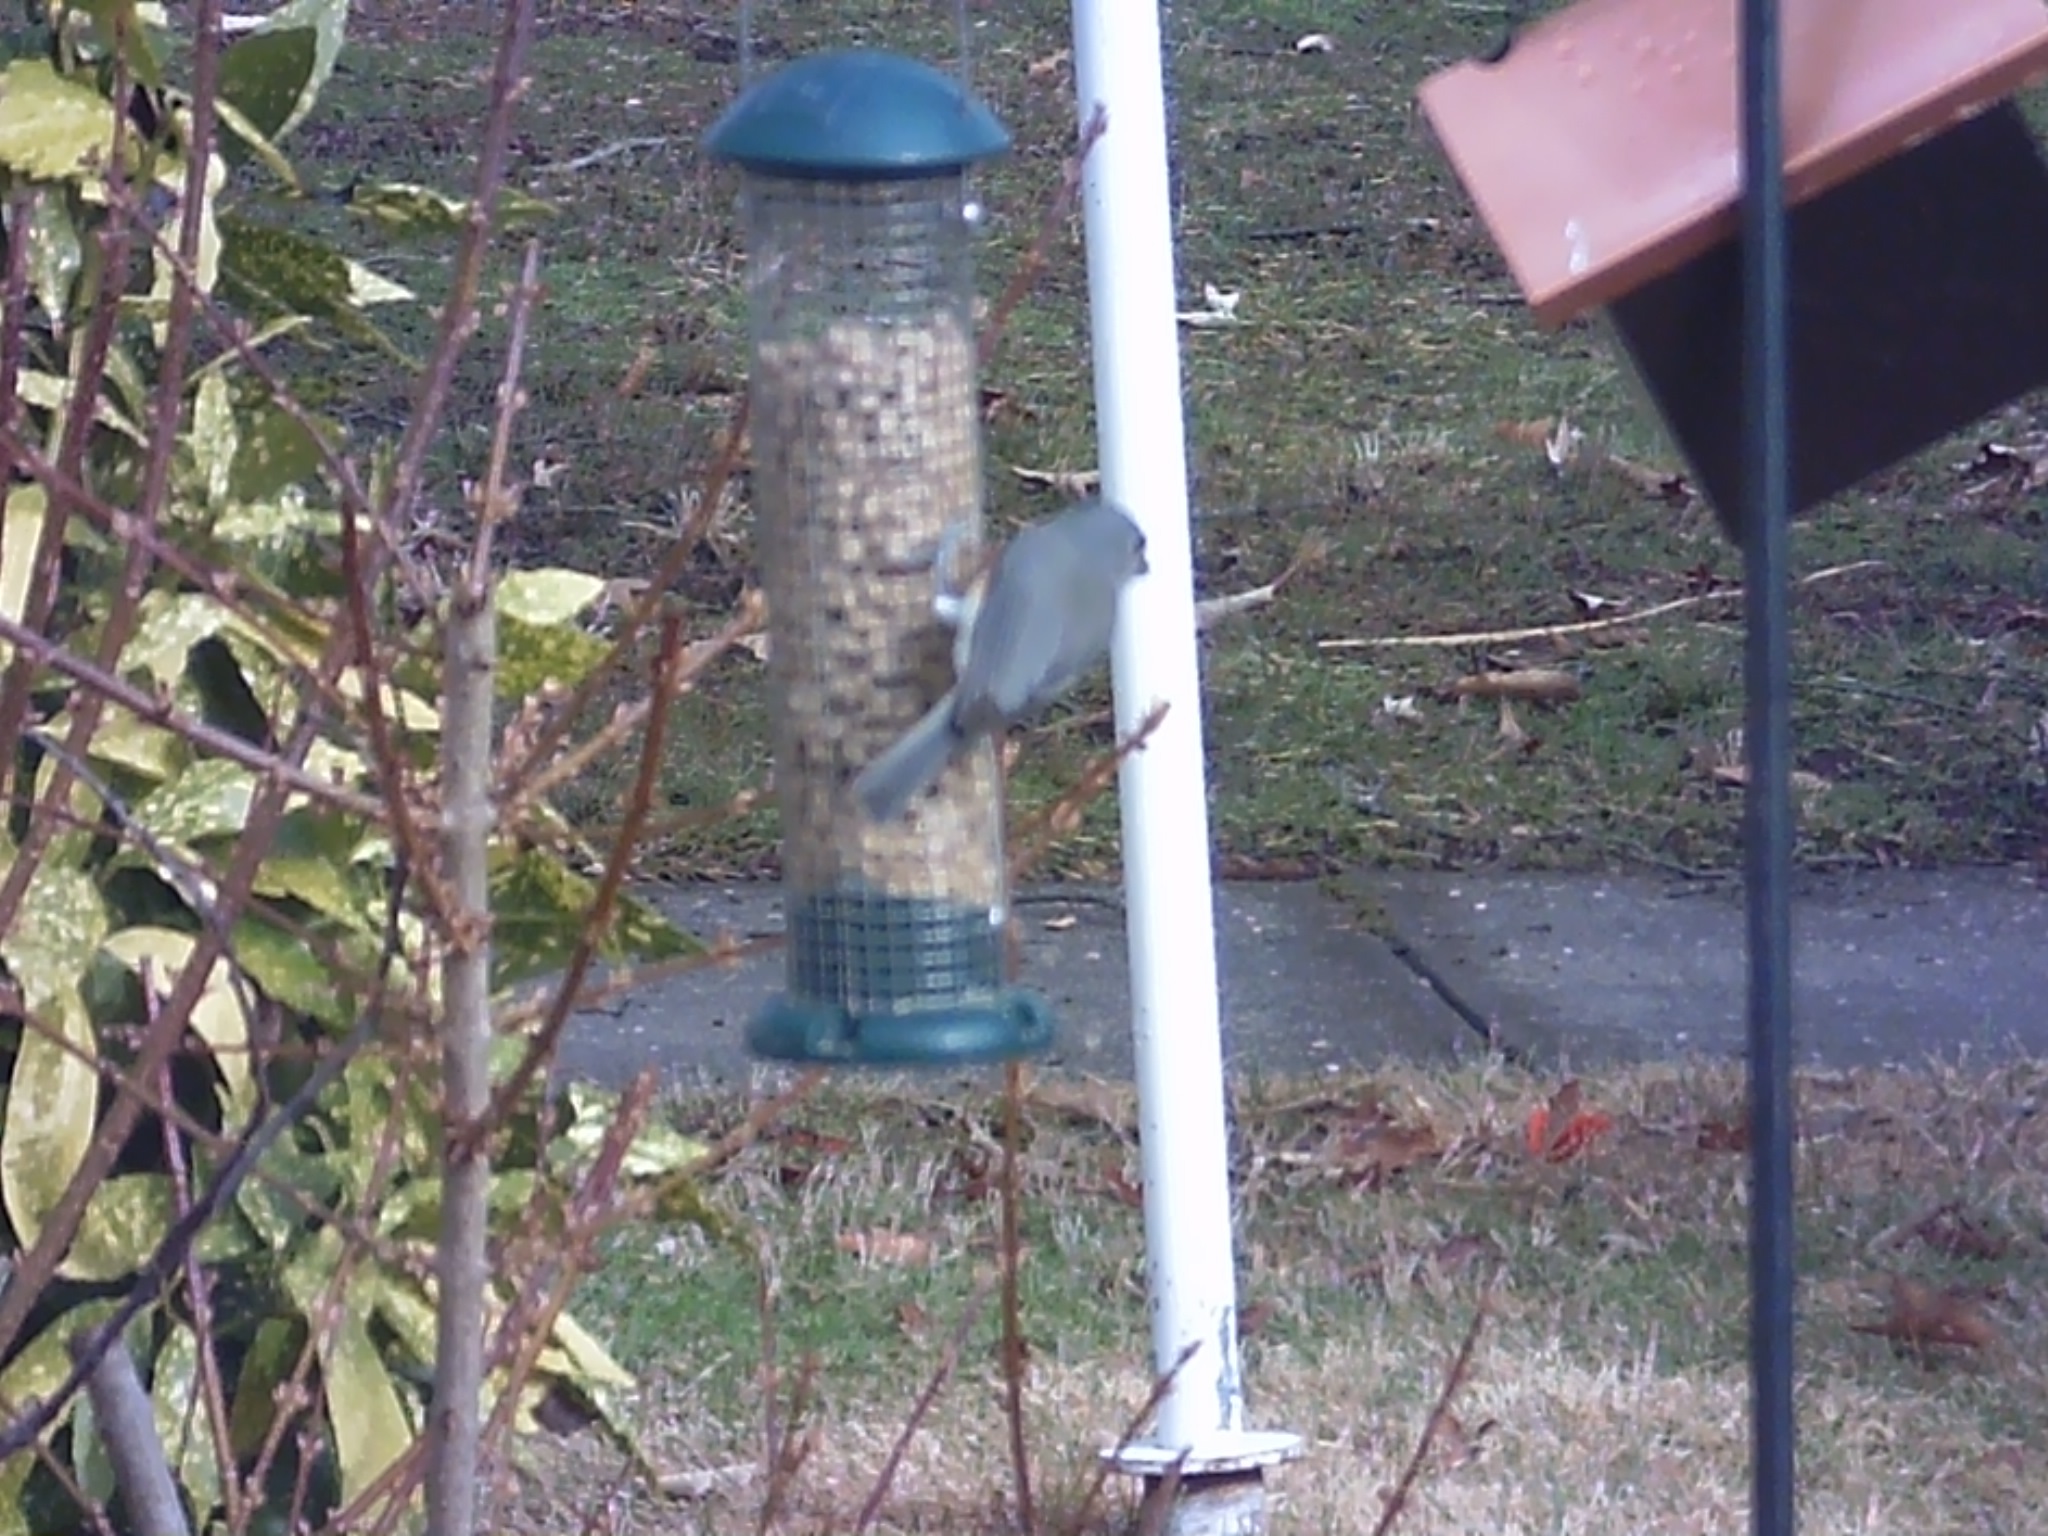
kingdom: Animalia
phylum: Chordata
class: Aves
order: Passeriformes
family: Paridae
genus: Baeolophus
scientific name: Baeolophus bicolor
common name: Tufted titmouse
